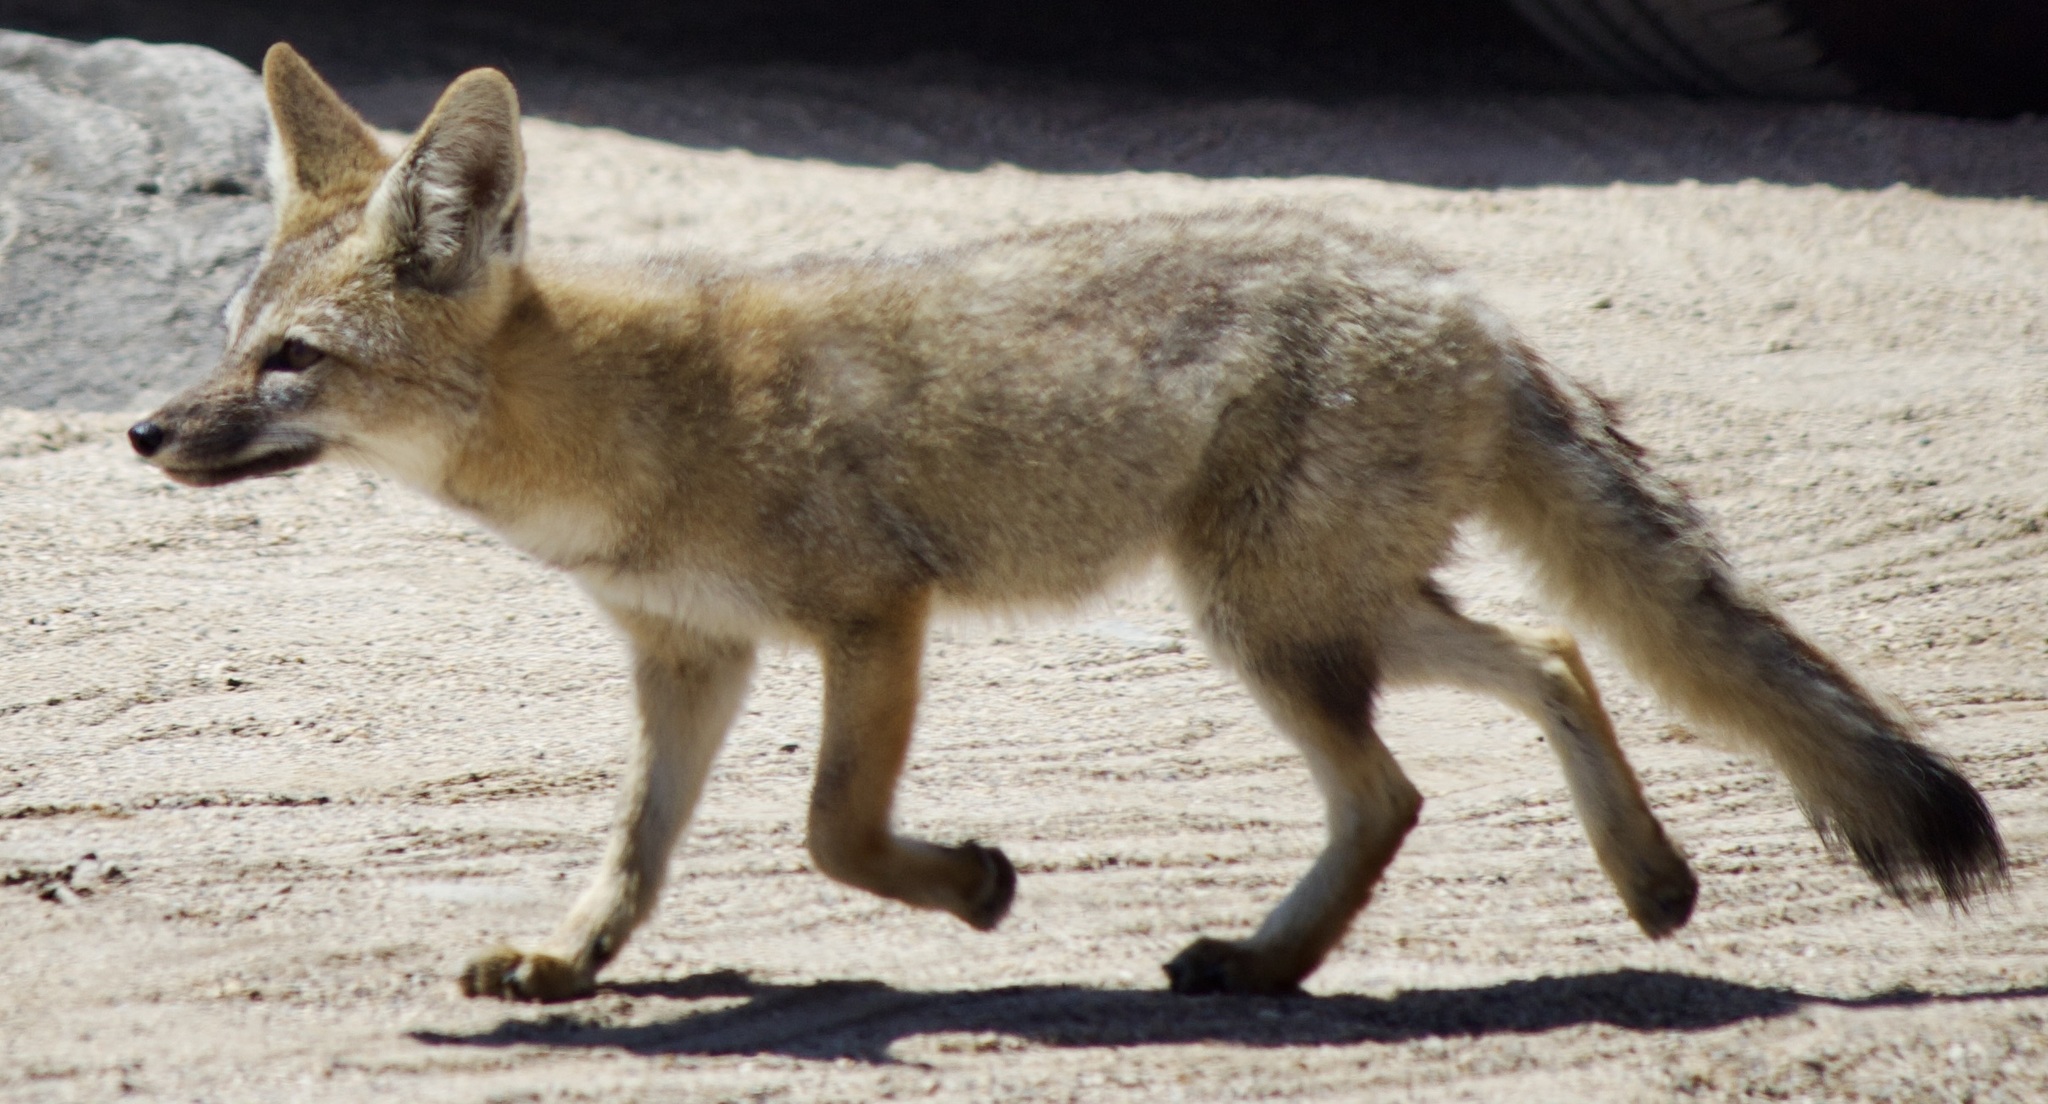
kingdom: Animalia
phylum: Chordata
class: Mammalia
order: Carnivora
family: Canidae
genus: Lycalopex
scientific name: Lycalopex gymnocercus
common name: Pampas fox
